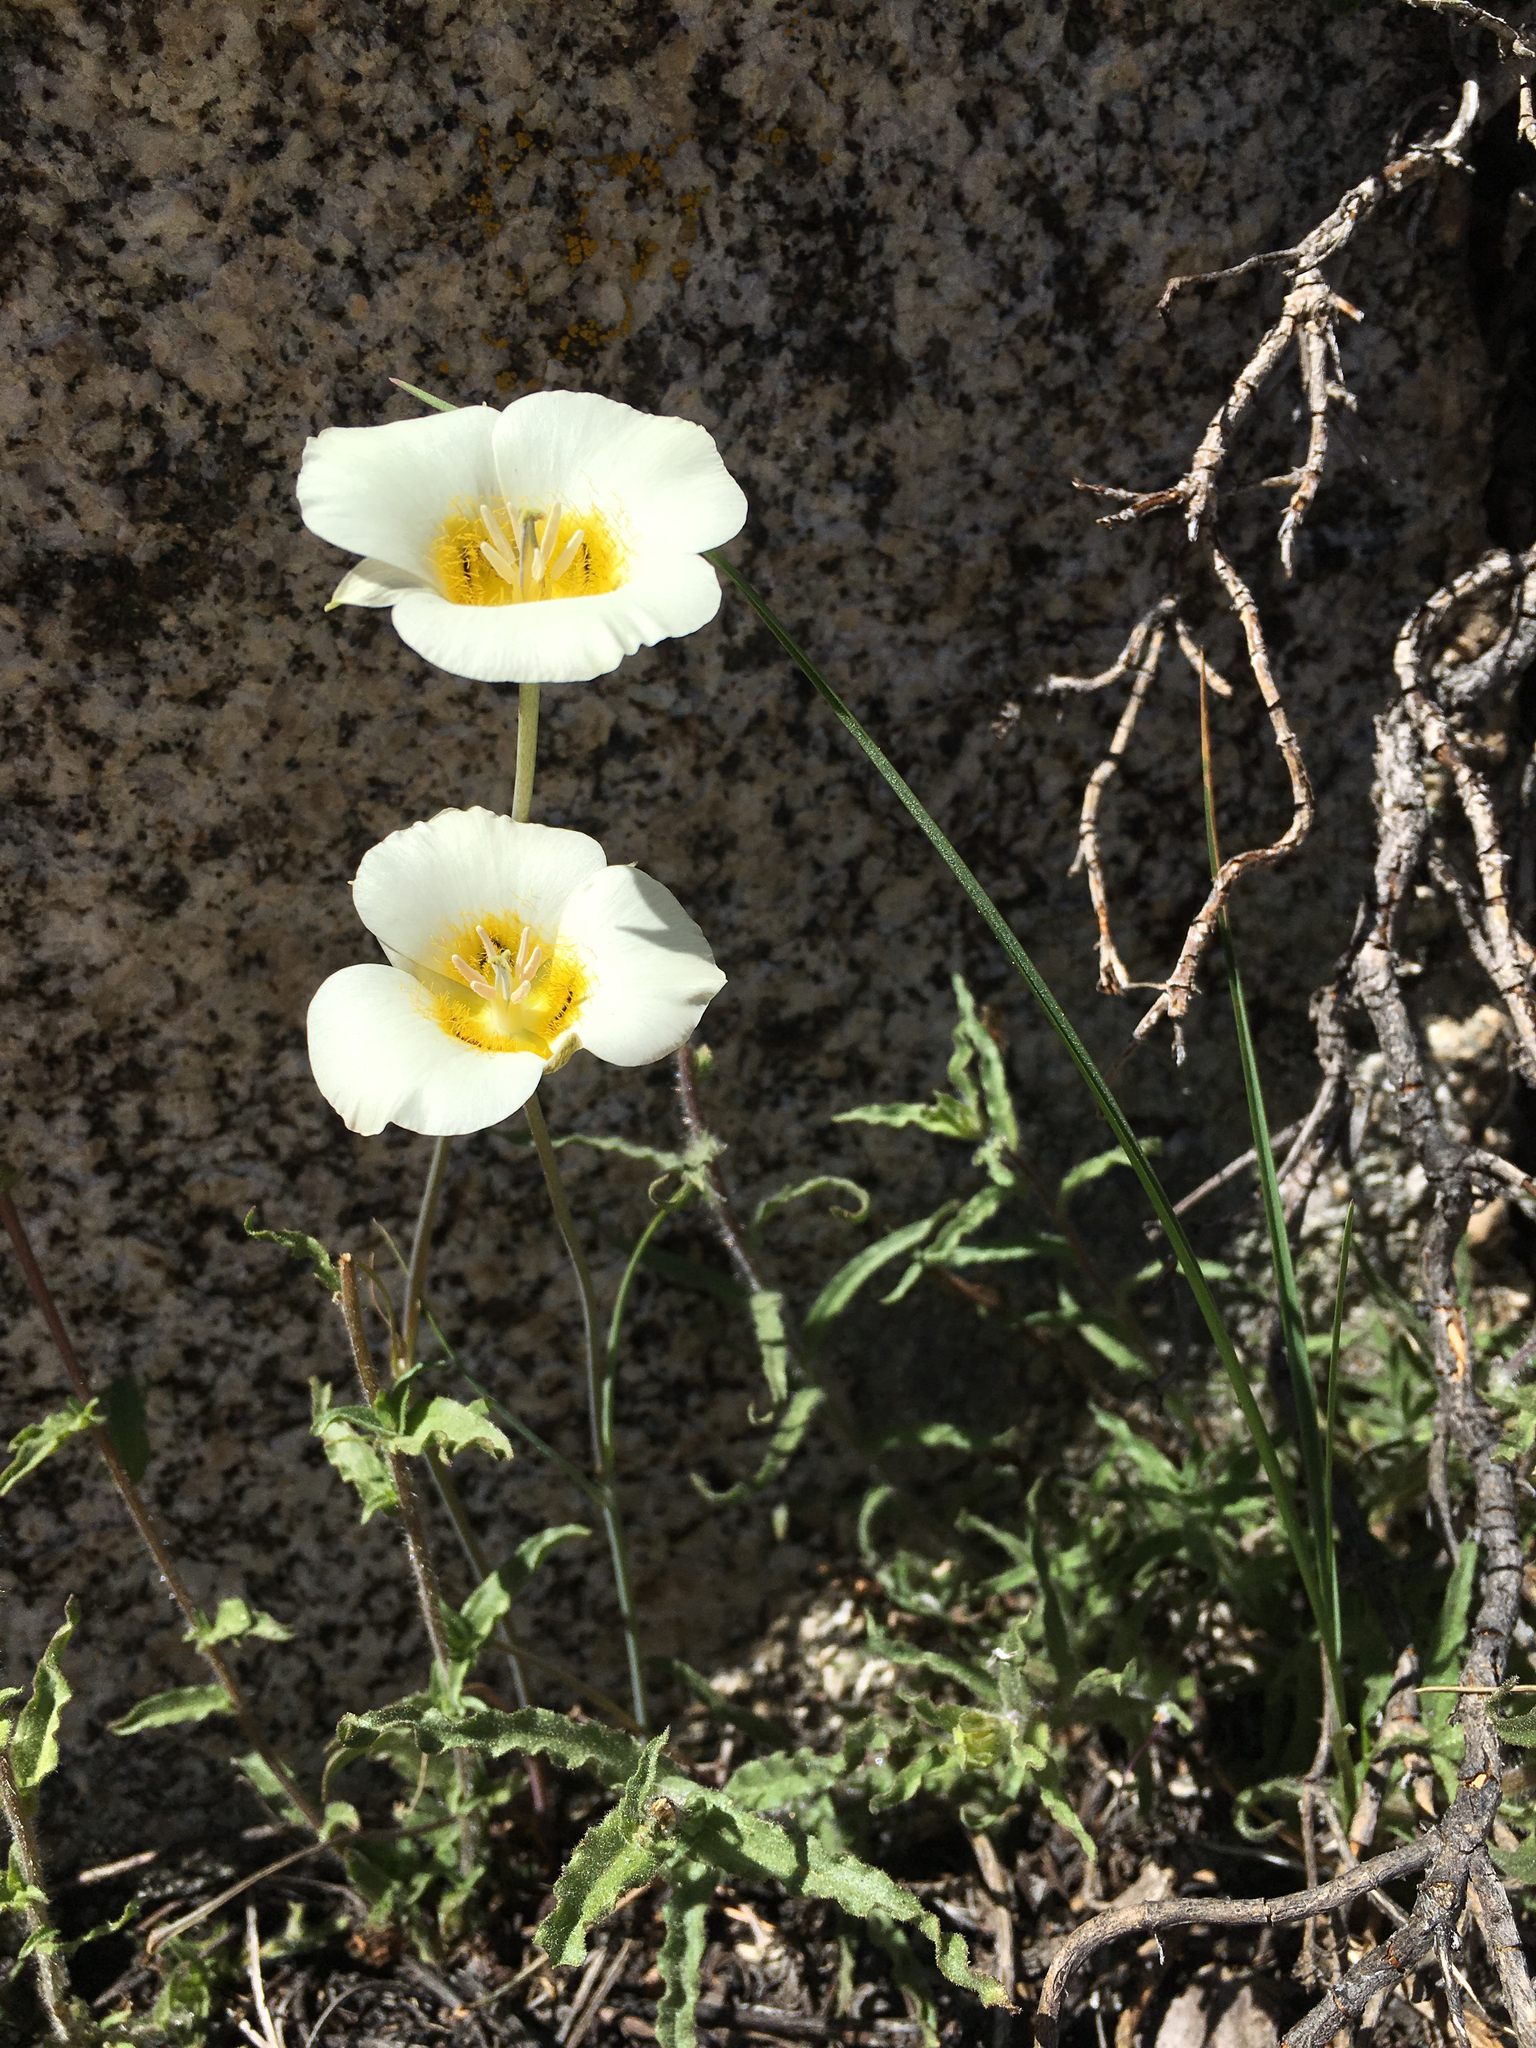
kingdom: Plantae
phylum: Tracheophyta
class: Liliopsida
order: Liliales
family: Liliaceae
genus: Calochortus
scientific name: Calochortus leichtlinii
